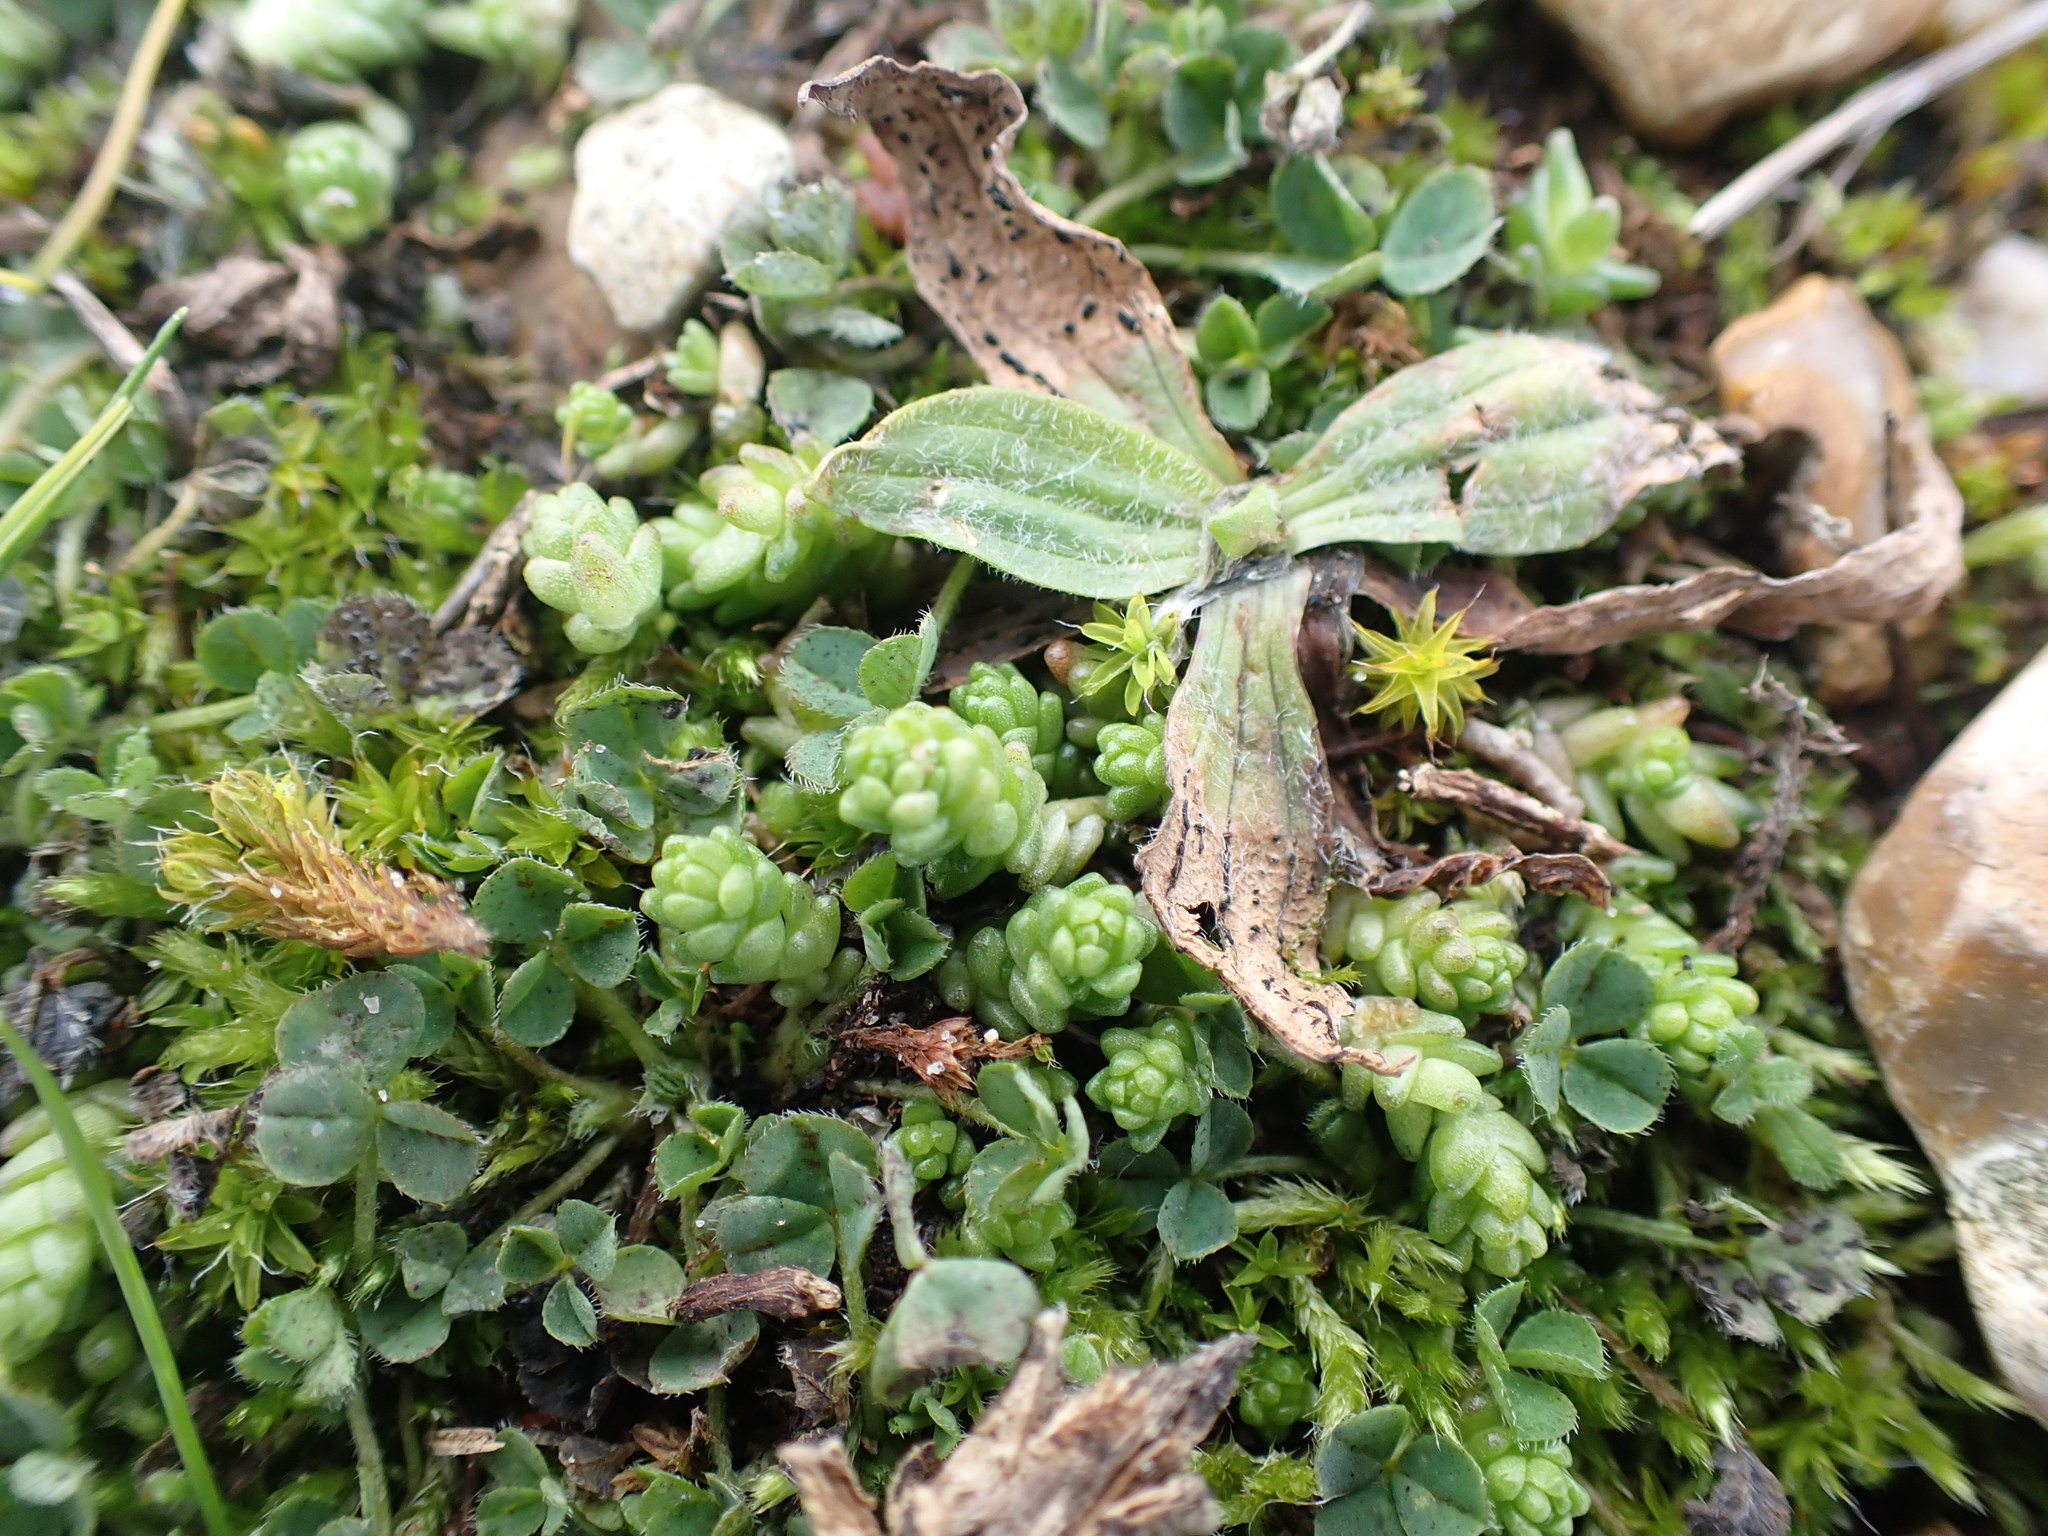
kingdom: Plantae
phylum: Tracheophyta
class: Magnoliopsida
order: Saxifragales
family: Crassulaceae
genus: Sedum
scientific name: Sedum acre
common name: Biting stonecrop
